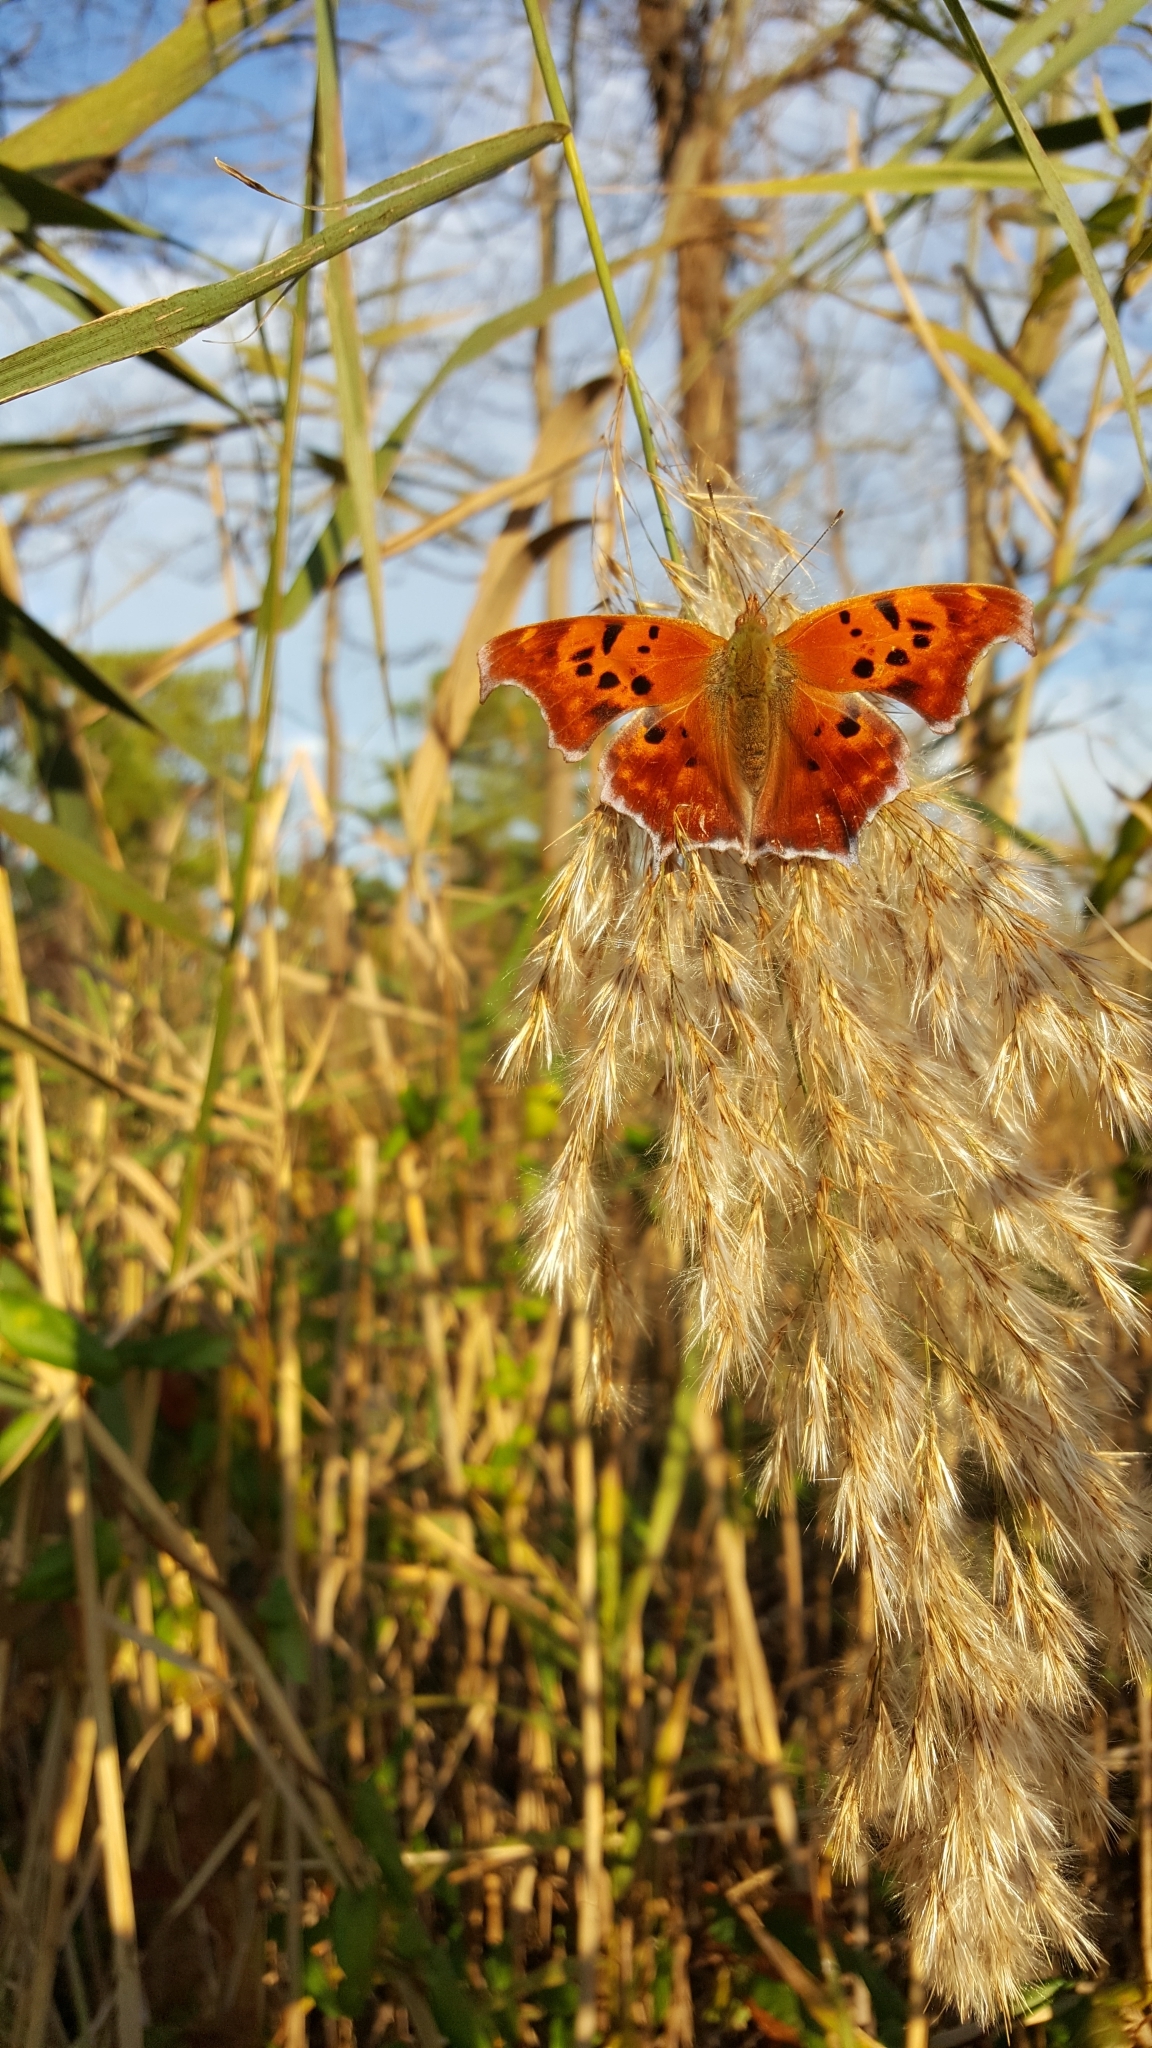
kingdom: Animalia
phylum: Arthropoda
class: Insecta
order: Lepidoptera
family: Nymphalidae
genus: Polygonia
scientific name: Polygonia interrogationis
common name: Question mark
